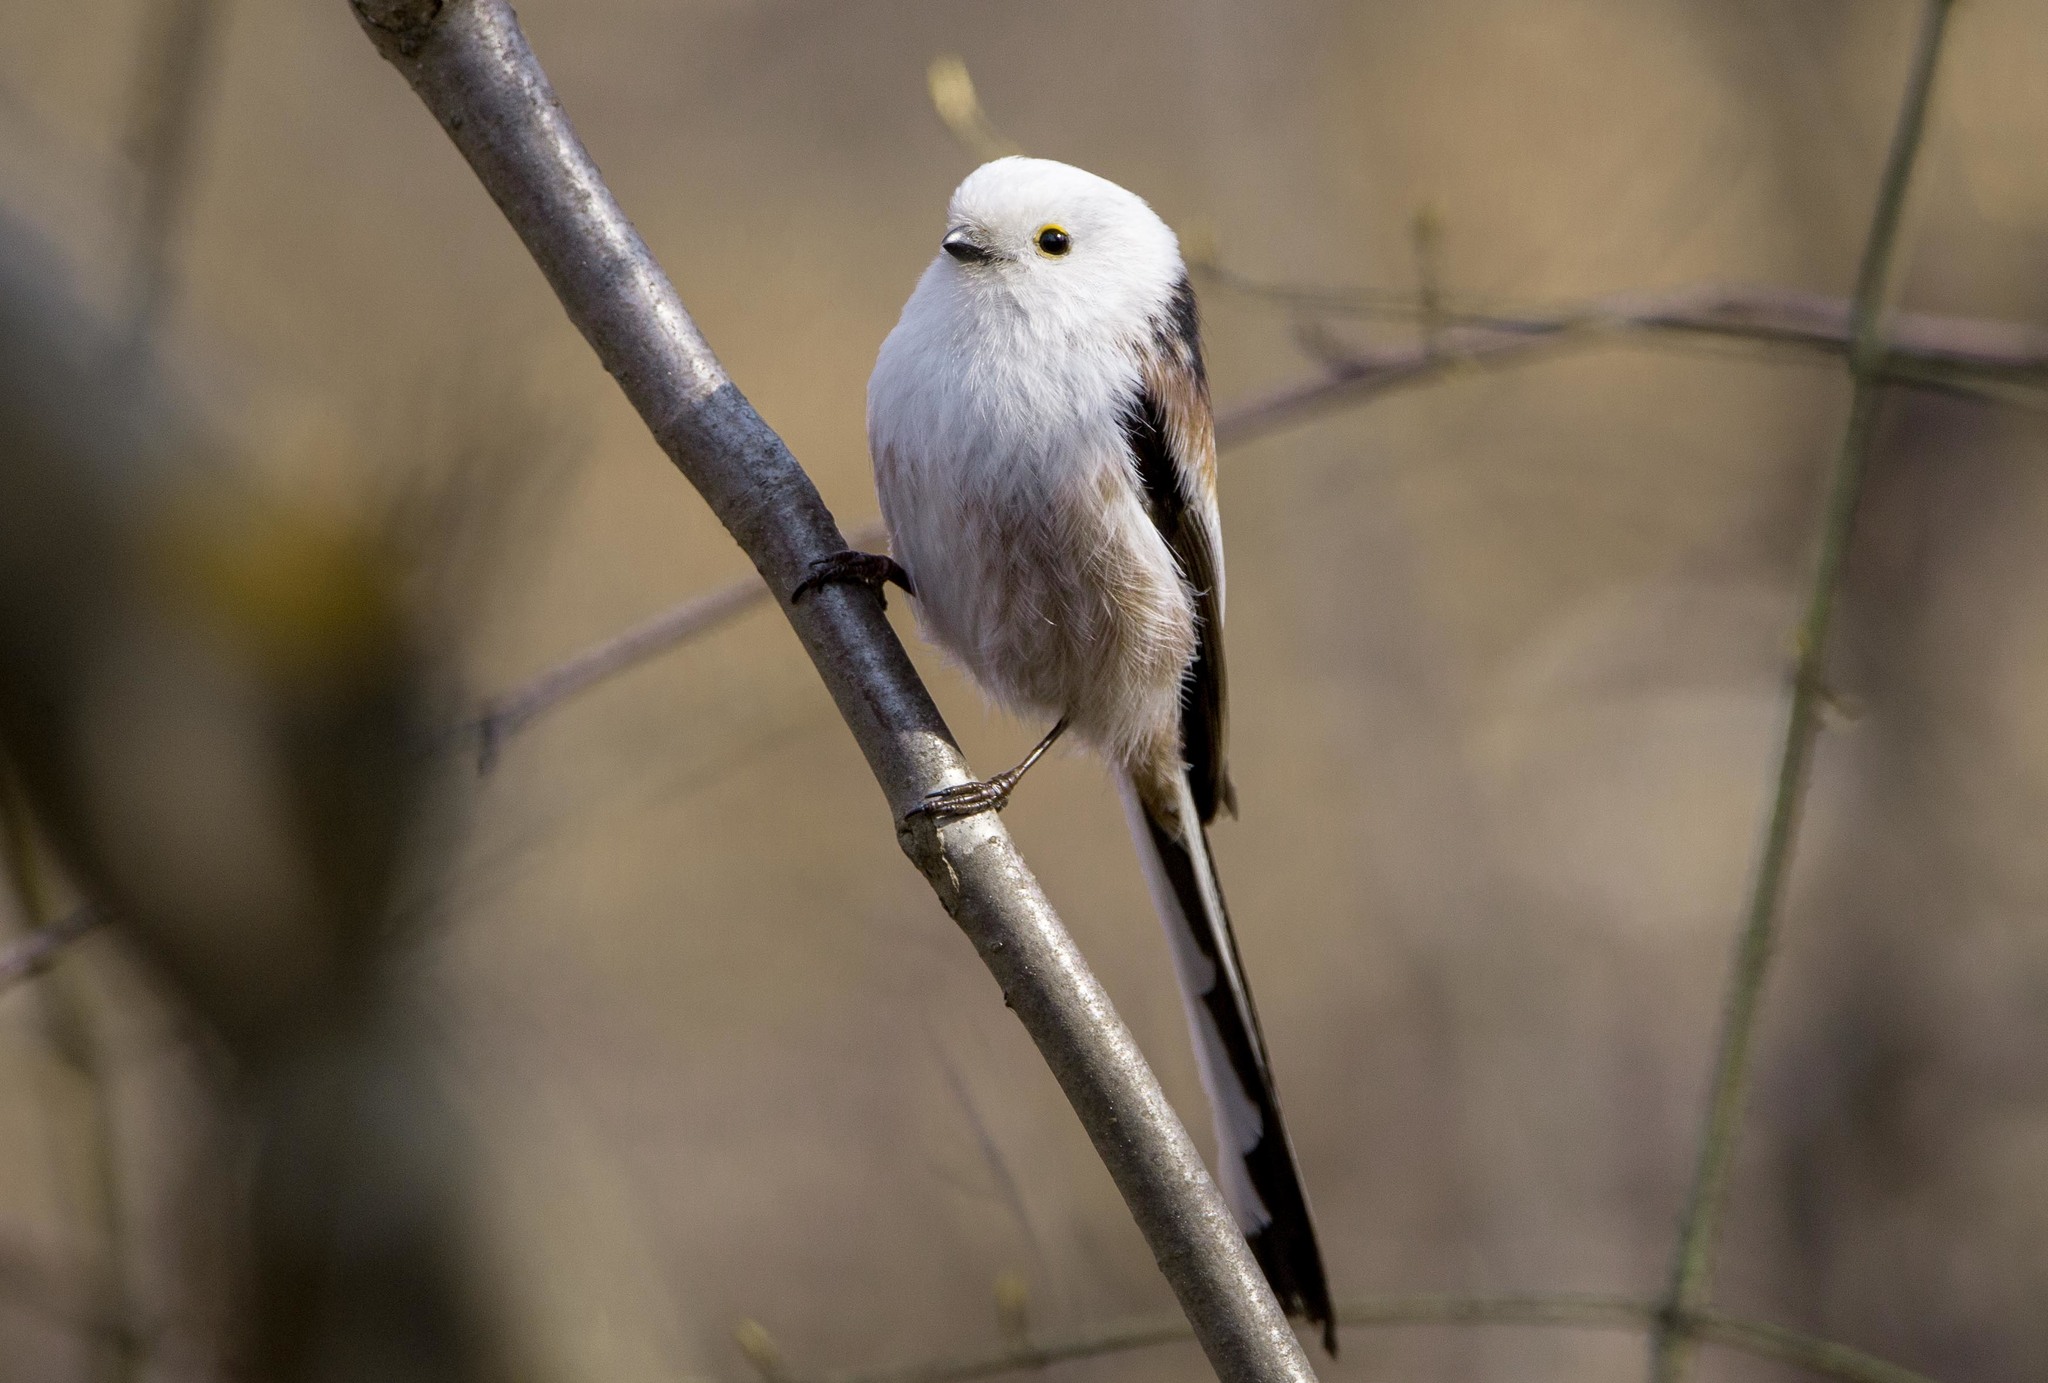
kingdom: Animalia
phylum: Chordata
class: Aves
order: Passeriformes
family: Aegithalidae
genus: Aegithalos
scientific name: Aegithalos caudatus
